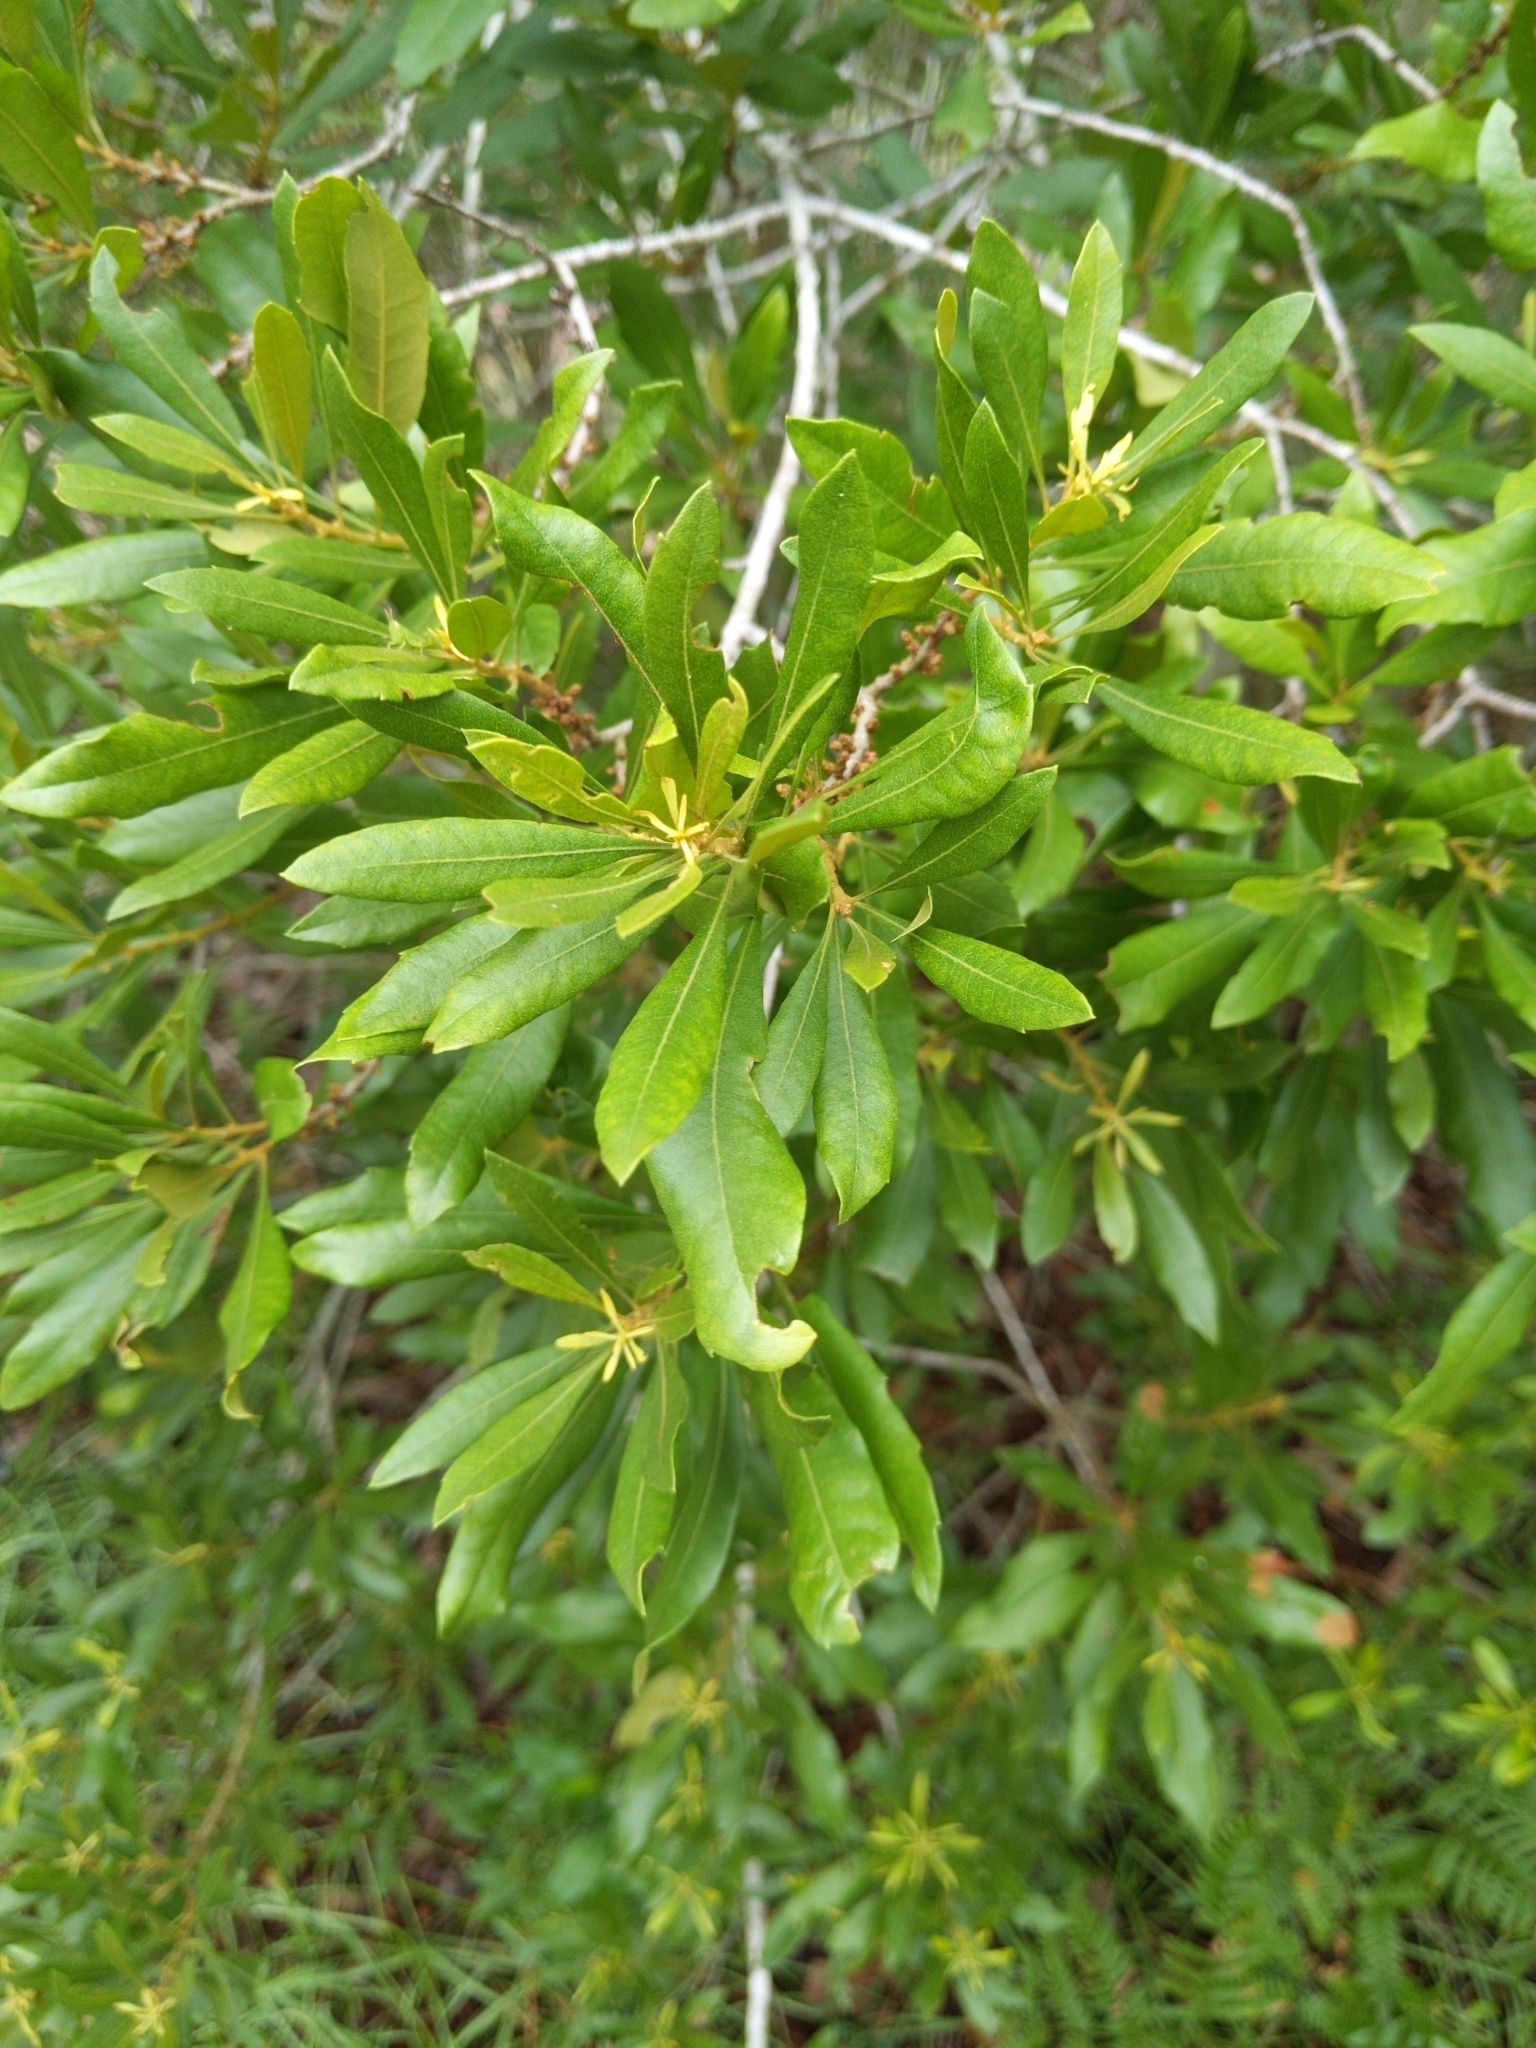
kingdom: Plantae
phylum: Tracheophyta
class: Magnoliopsida
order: Fagales
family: Myricaceae
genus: Morella
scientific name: Morella cerifera
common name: Wax myrtle
